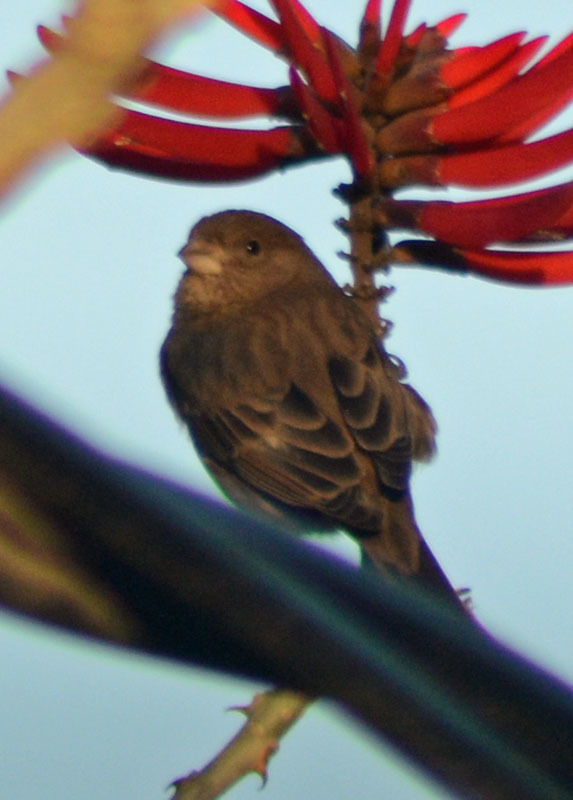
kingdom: Animalia
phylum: Chordata
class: Aves
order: Passeriformes
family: Fringillidae
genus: Haemorhous
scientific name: Haemorhous mexicanus
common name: House finch
